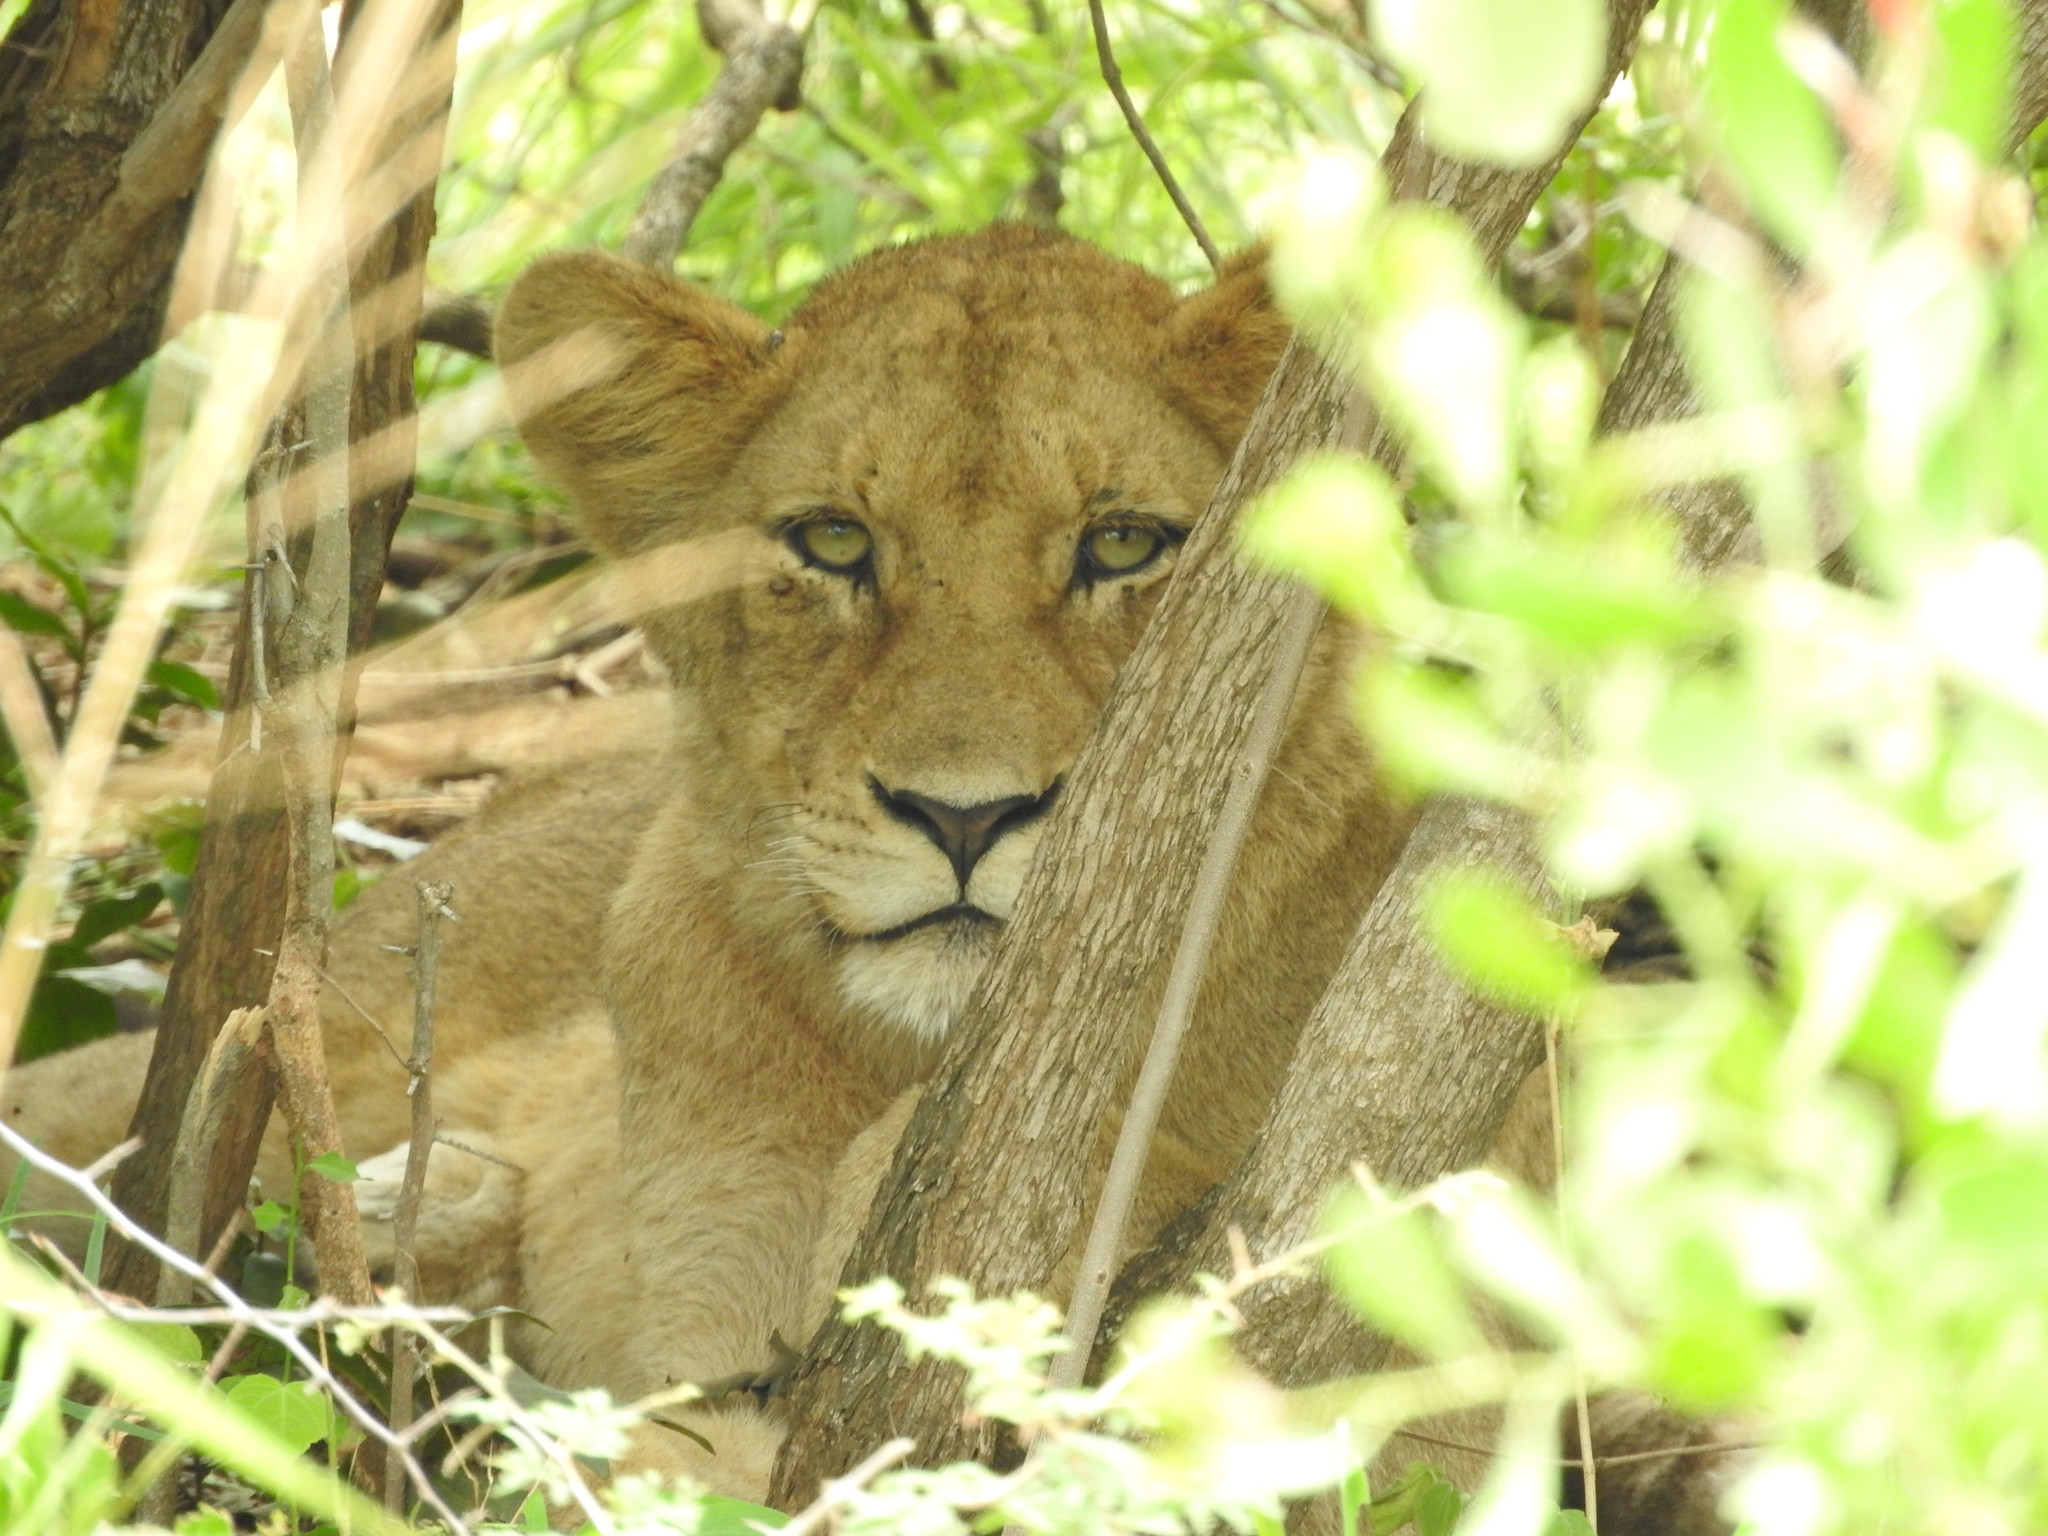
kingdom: Animalia
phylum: Chordata
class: Mammalia
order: Carnivora
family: Felidae
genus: Panthera
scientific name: Panthera leo
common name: Lion
